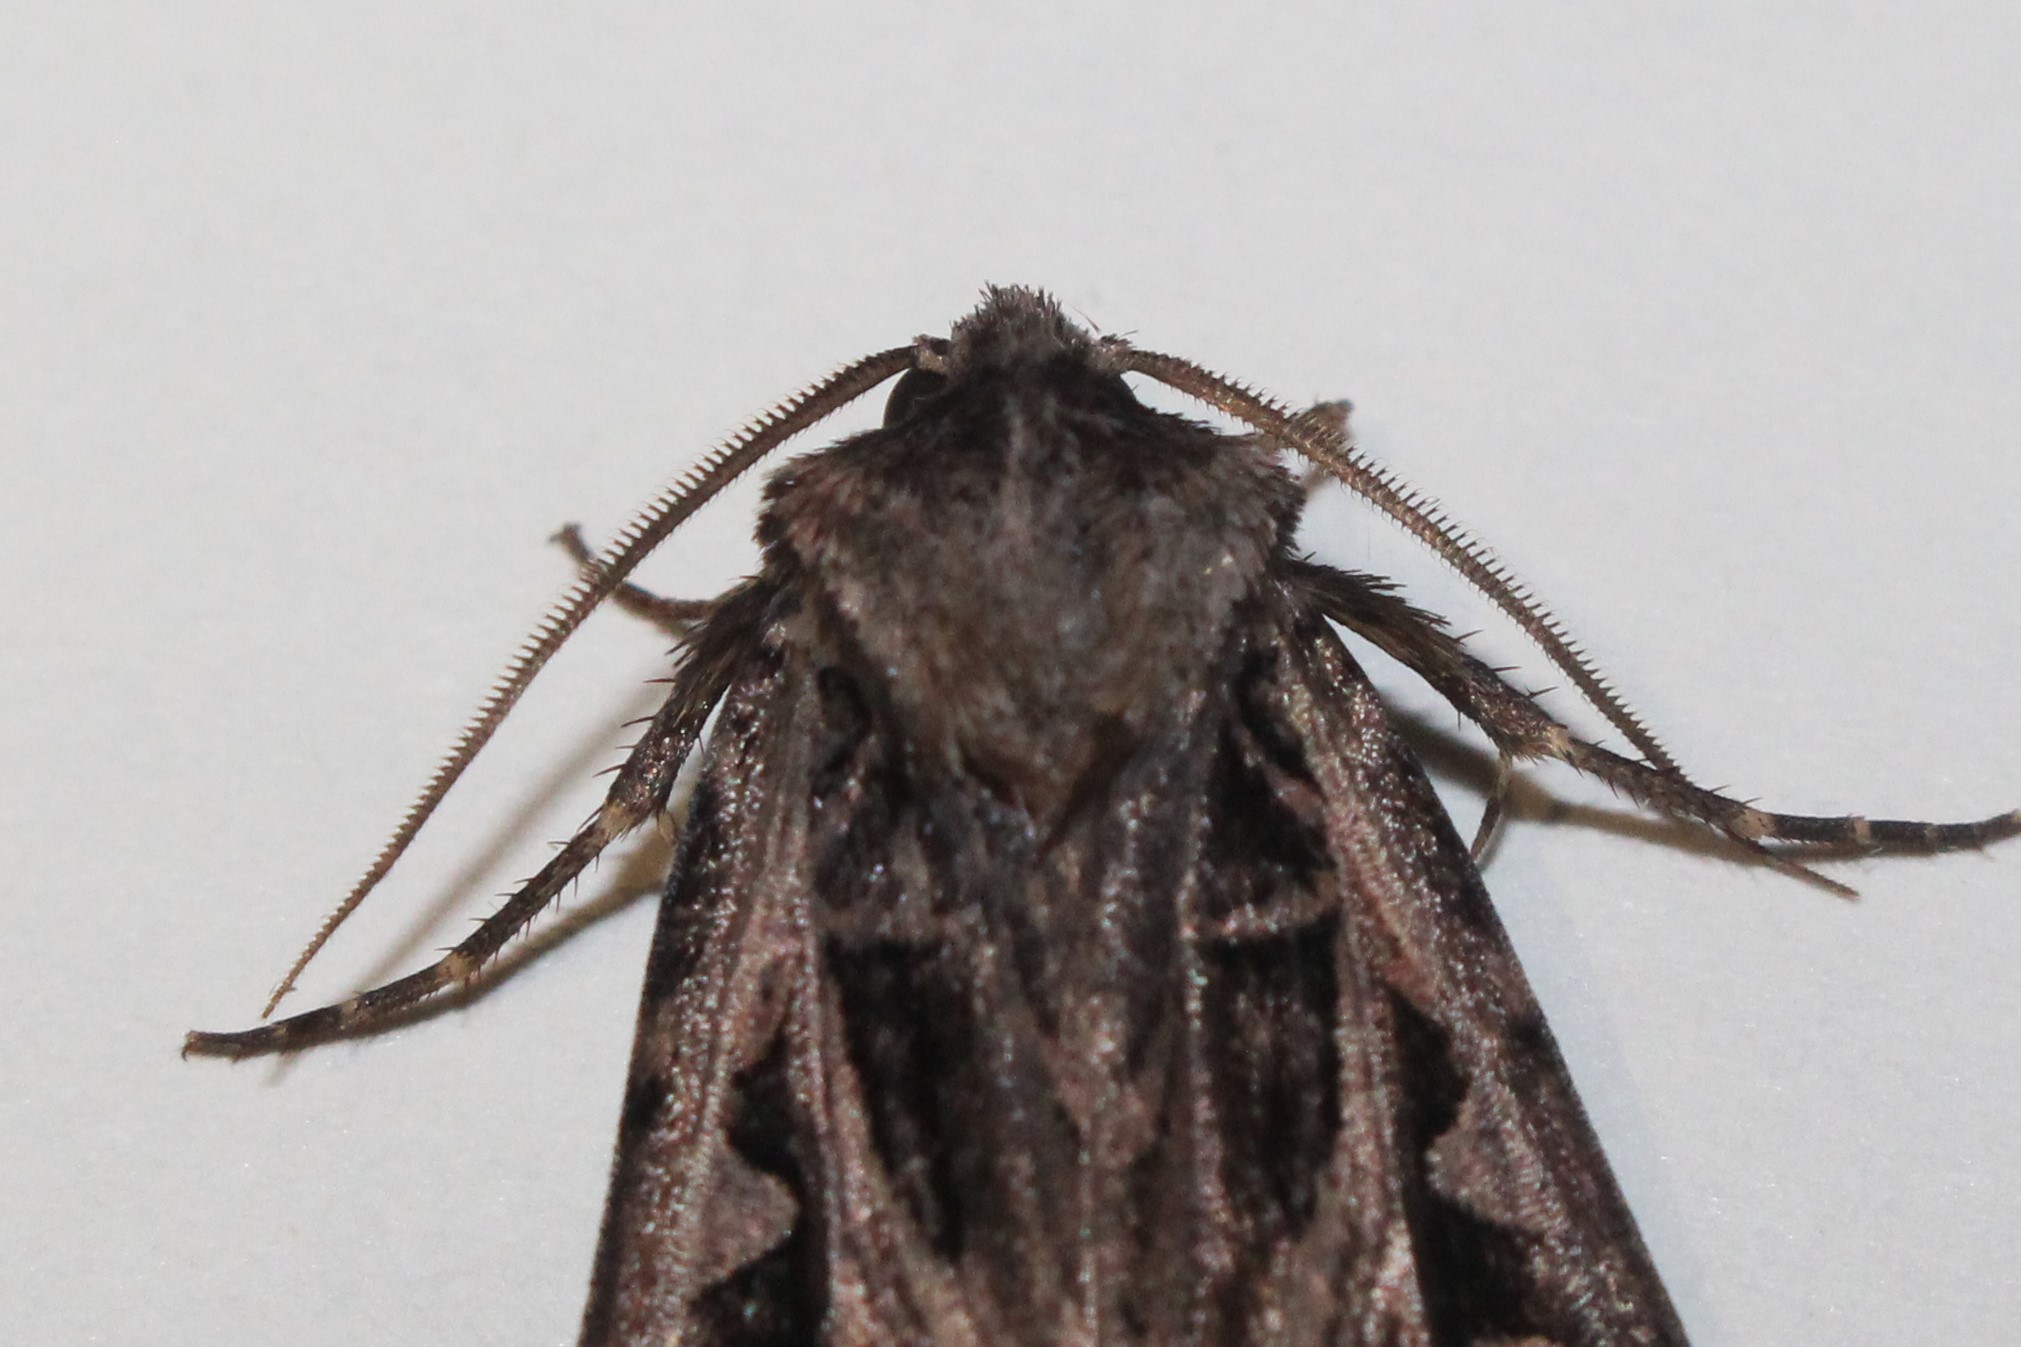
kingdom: Animalia
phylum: Arthropoda
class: Insecta
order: Lepidoptera
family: Noctuidae
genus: Feltia
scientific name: Feltia tricosa
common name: Confused dart moth
